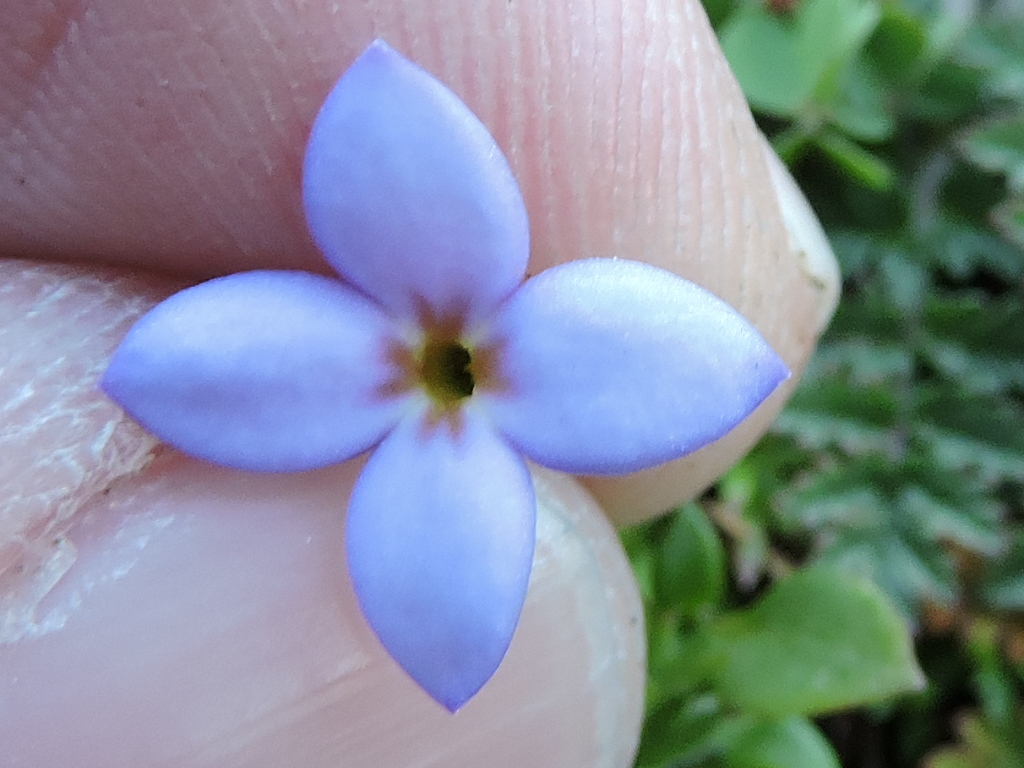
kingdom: Plantae
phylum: Tracheophyta
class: Magnoliopsida
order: Gentianales
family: Rubiaceae
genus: Houstonia
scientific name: Houstonia pusilla
